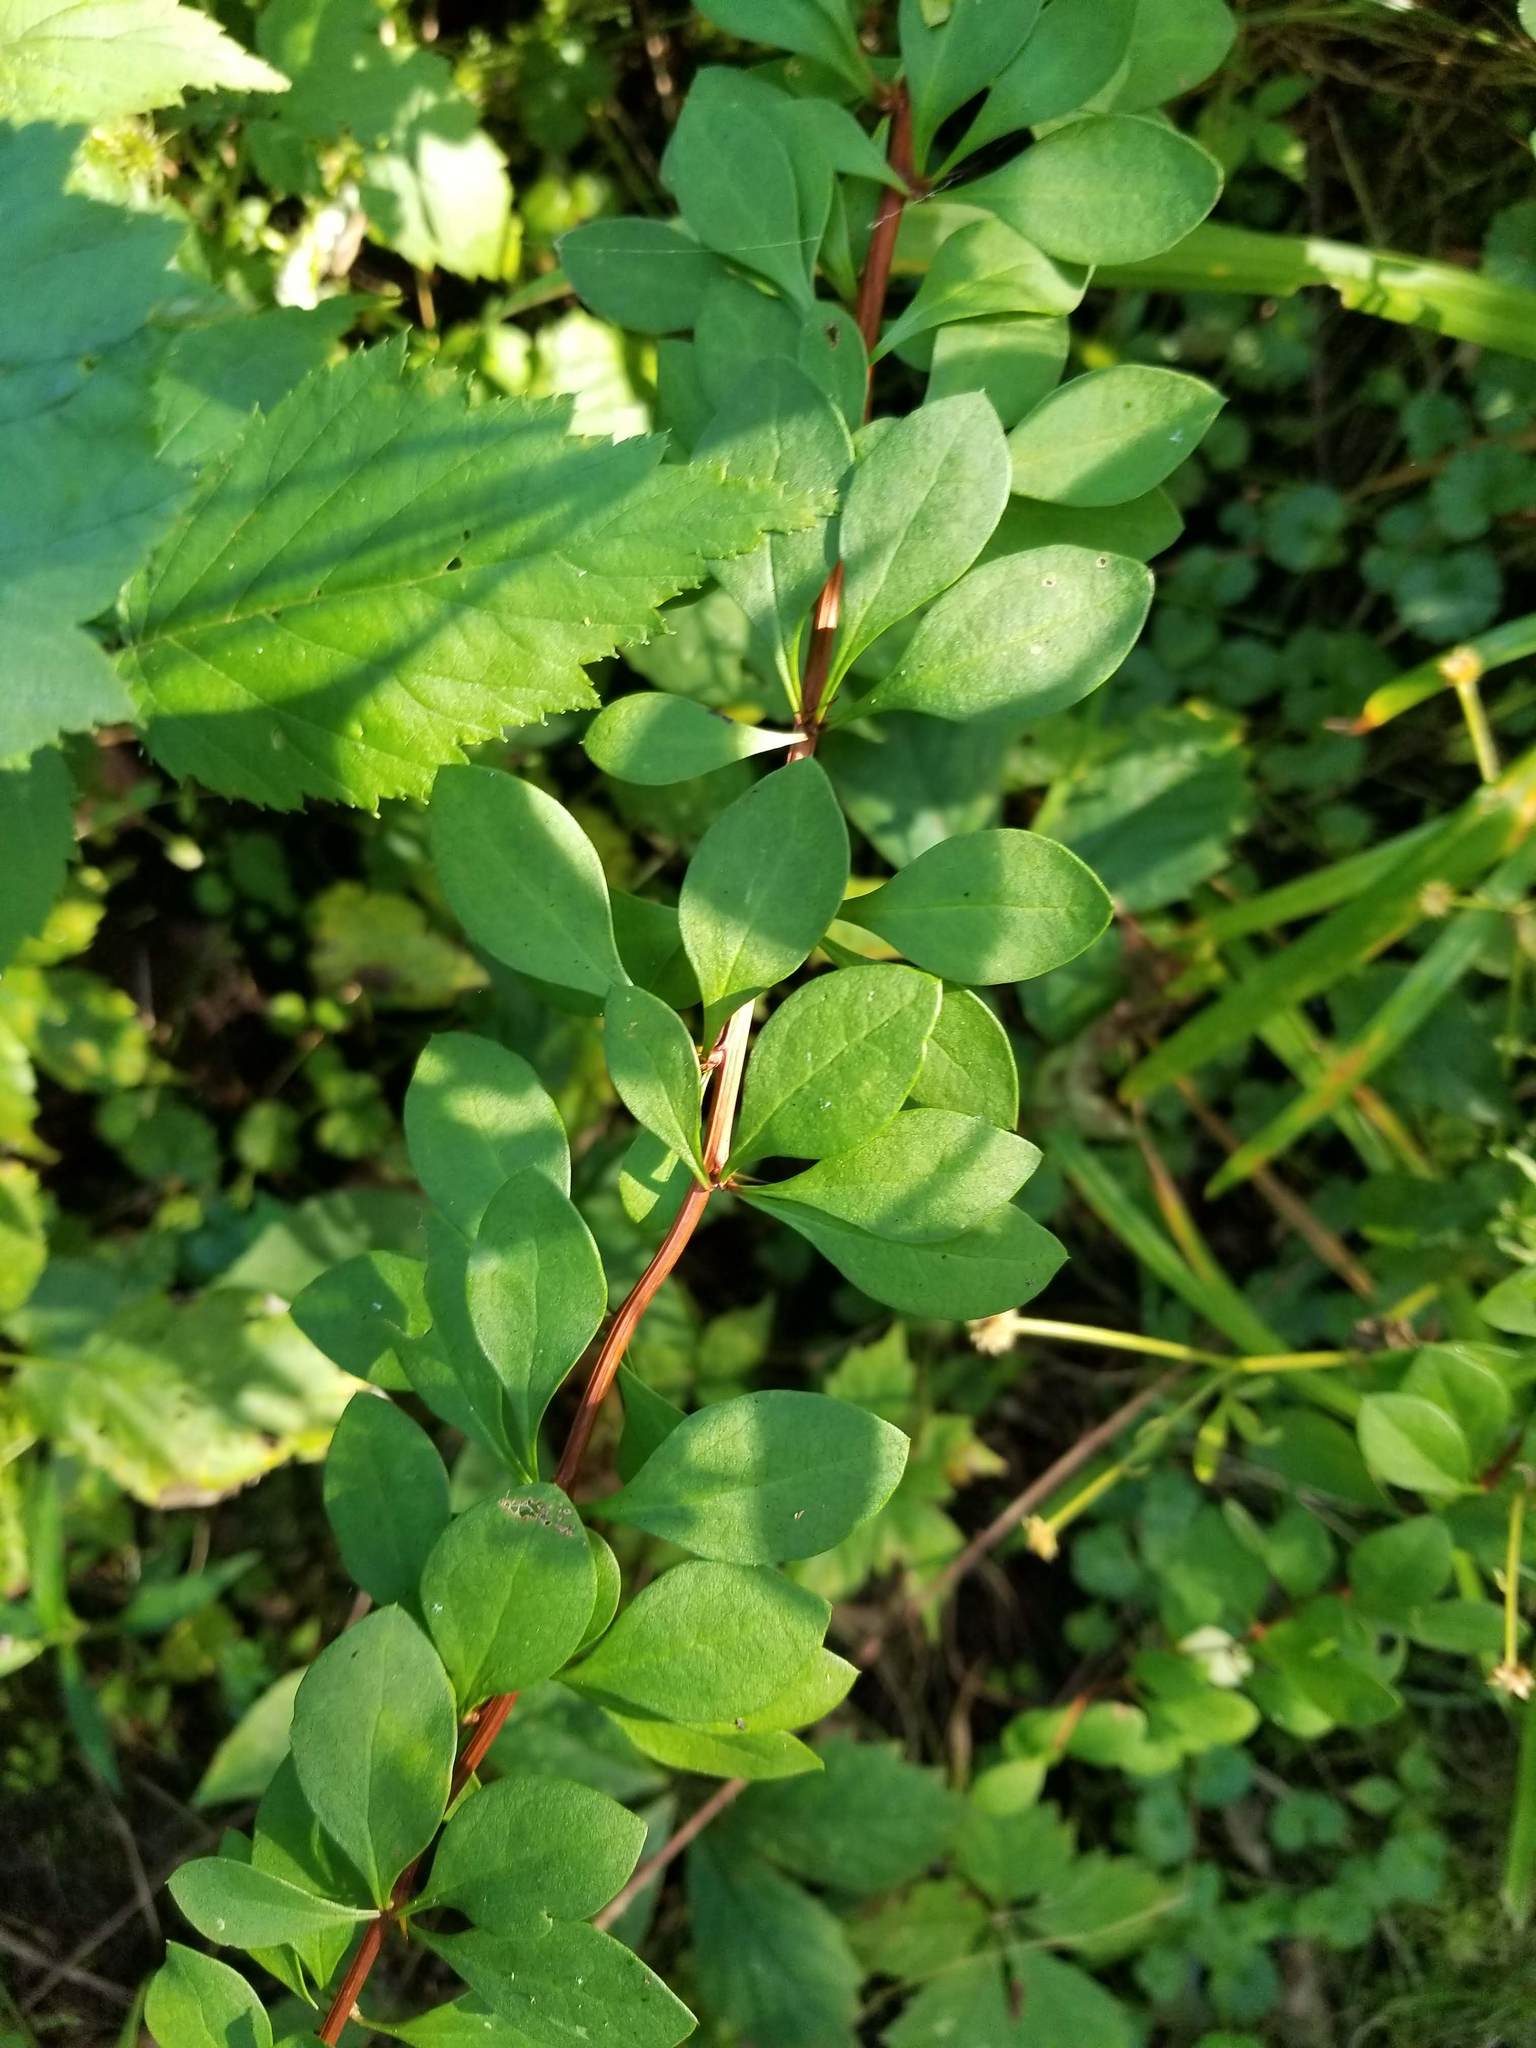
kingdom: Plantae
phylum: Tracheophyta
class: Magnoliopsida
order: Ranunculales
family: Berberidaceae
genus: Berberis
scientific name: Berberis thunbergii
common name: Japanese barberry
